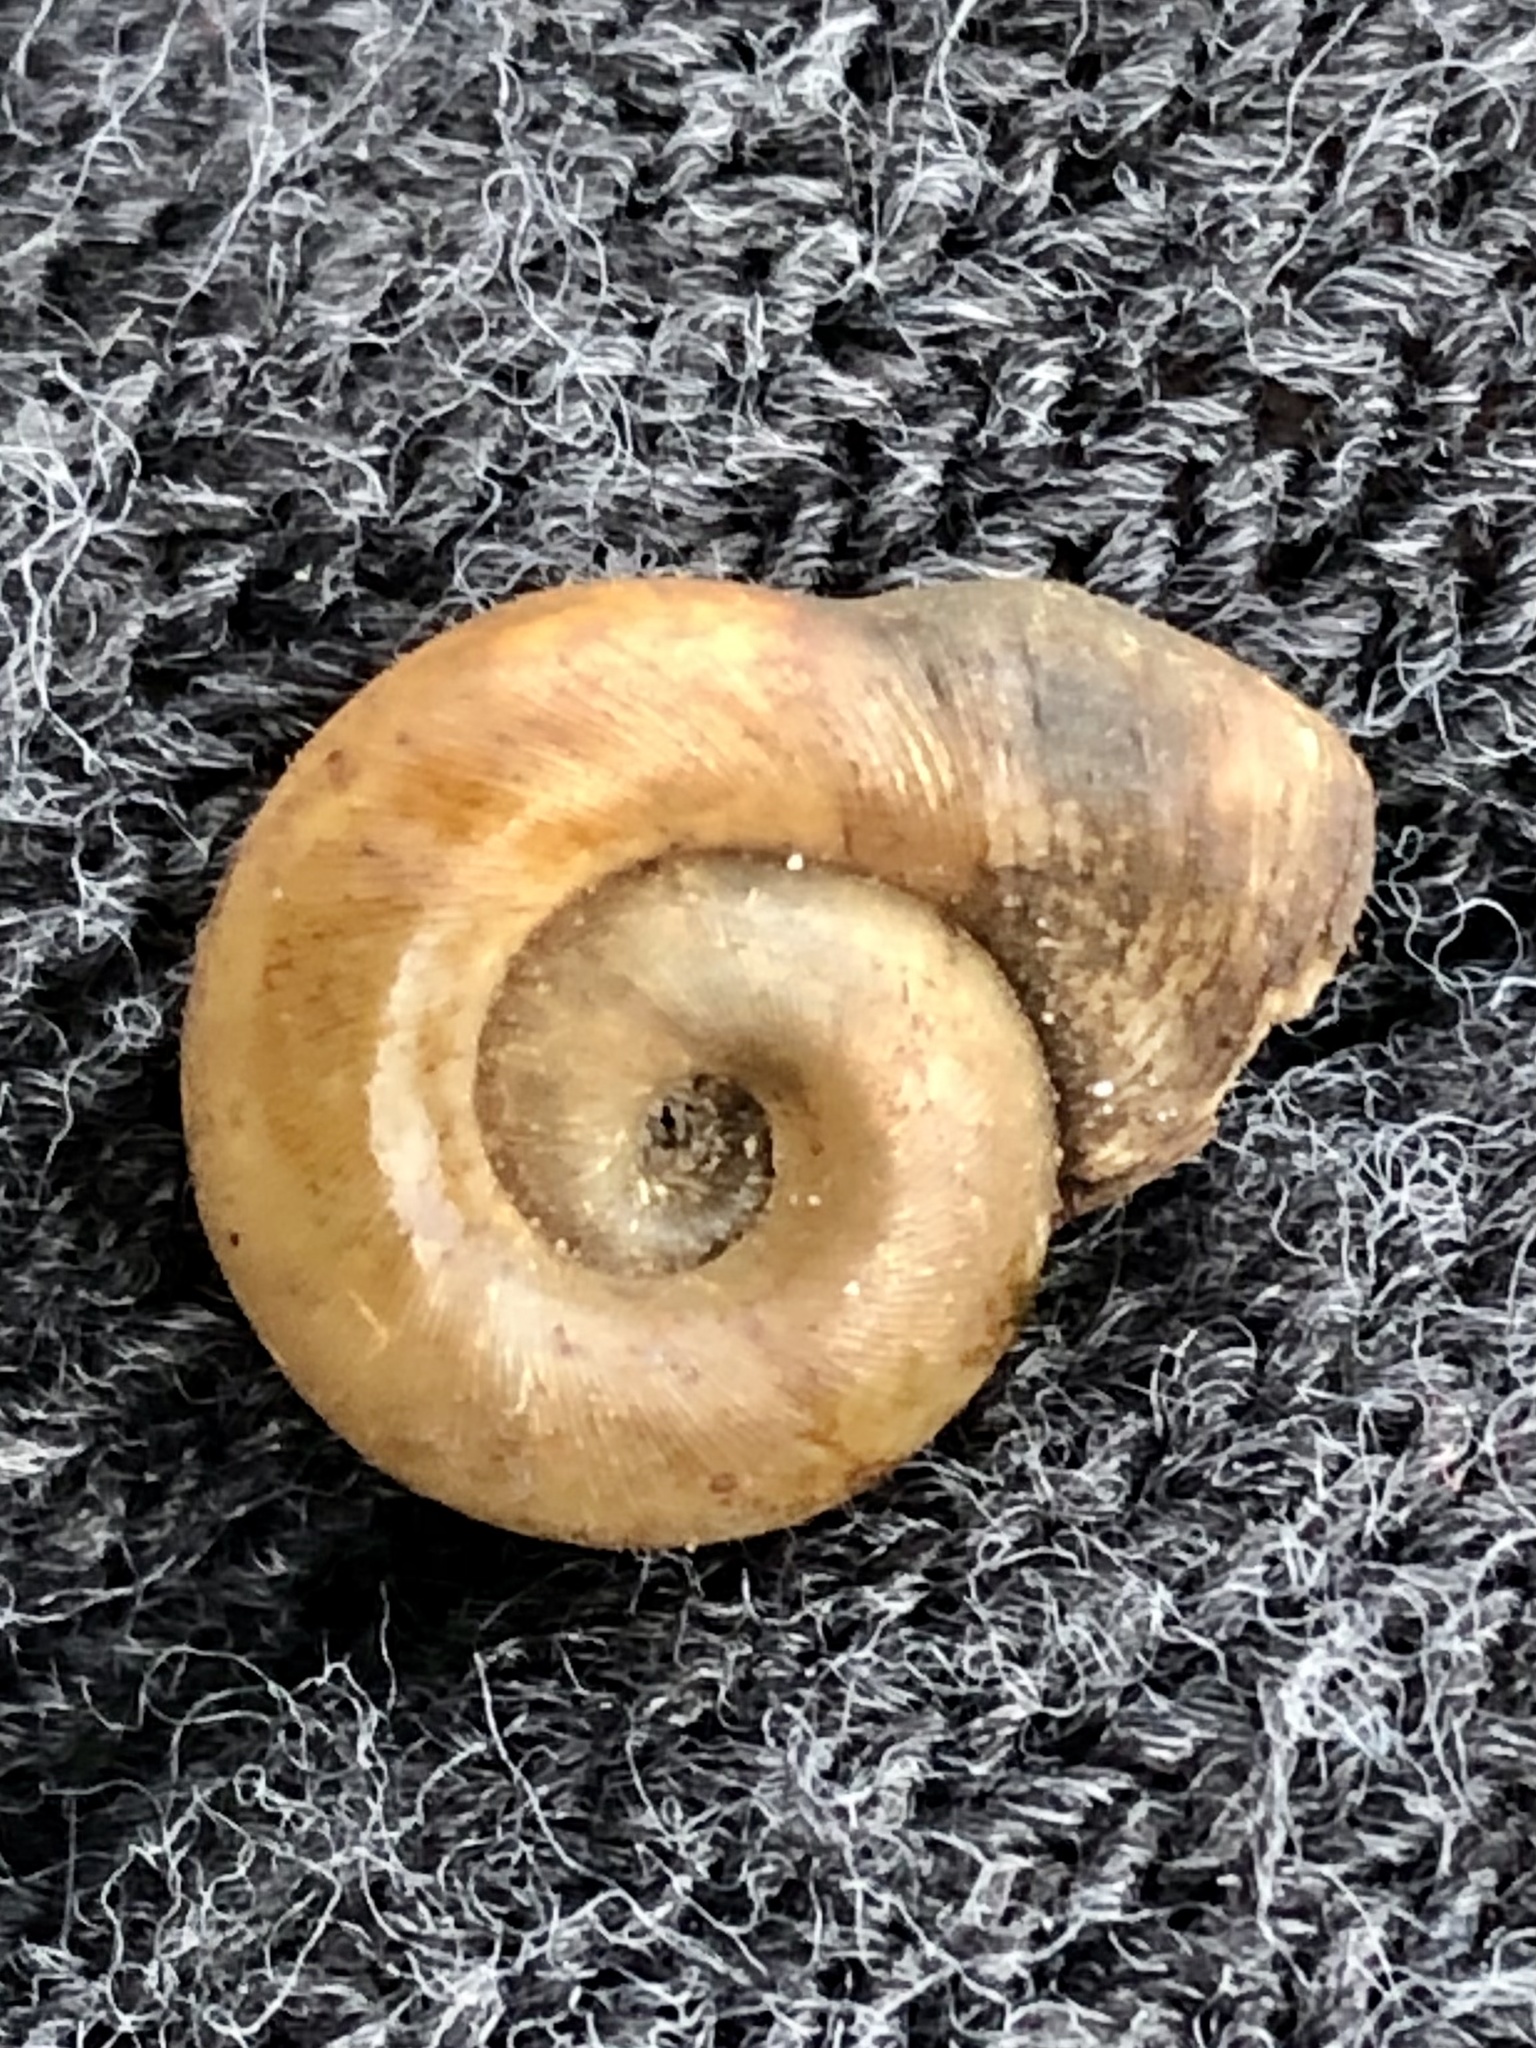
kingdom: Animalia
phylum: Mollusca
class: Gastropoda
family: Planorbidae
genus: Planorbella
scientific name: Planorbella campanulata
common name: Bellmouth ramshorn
